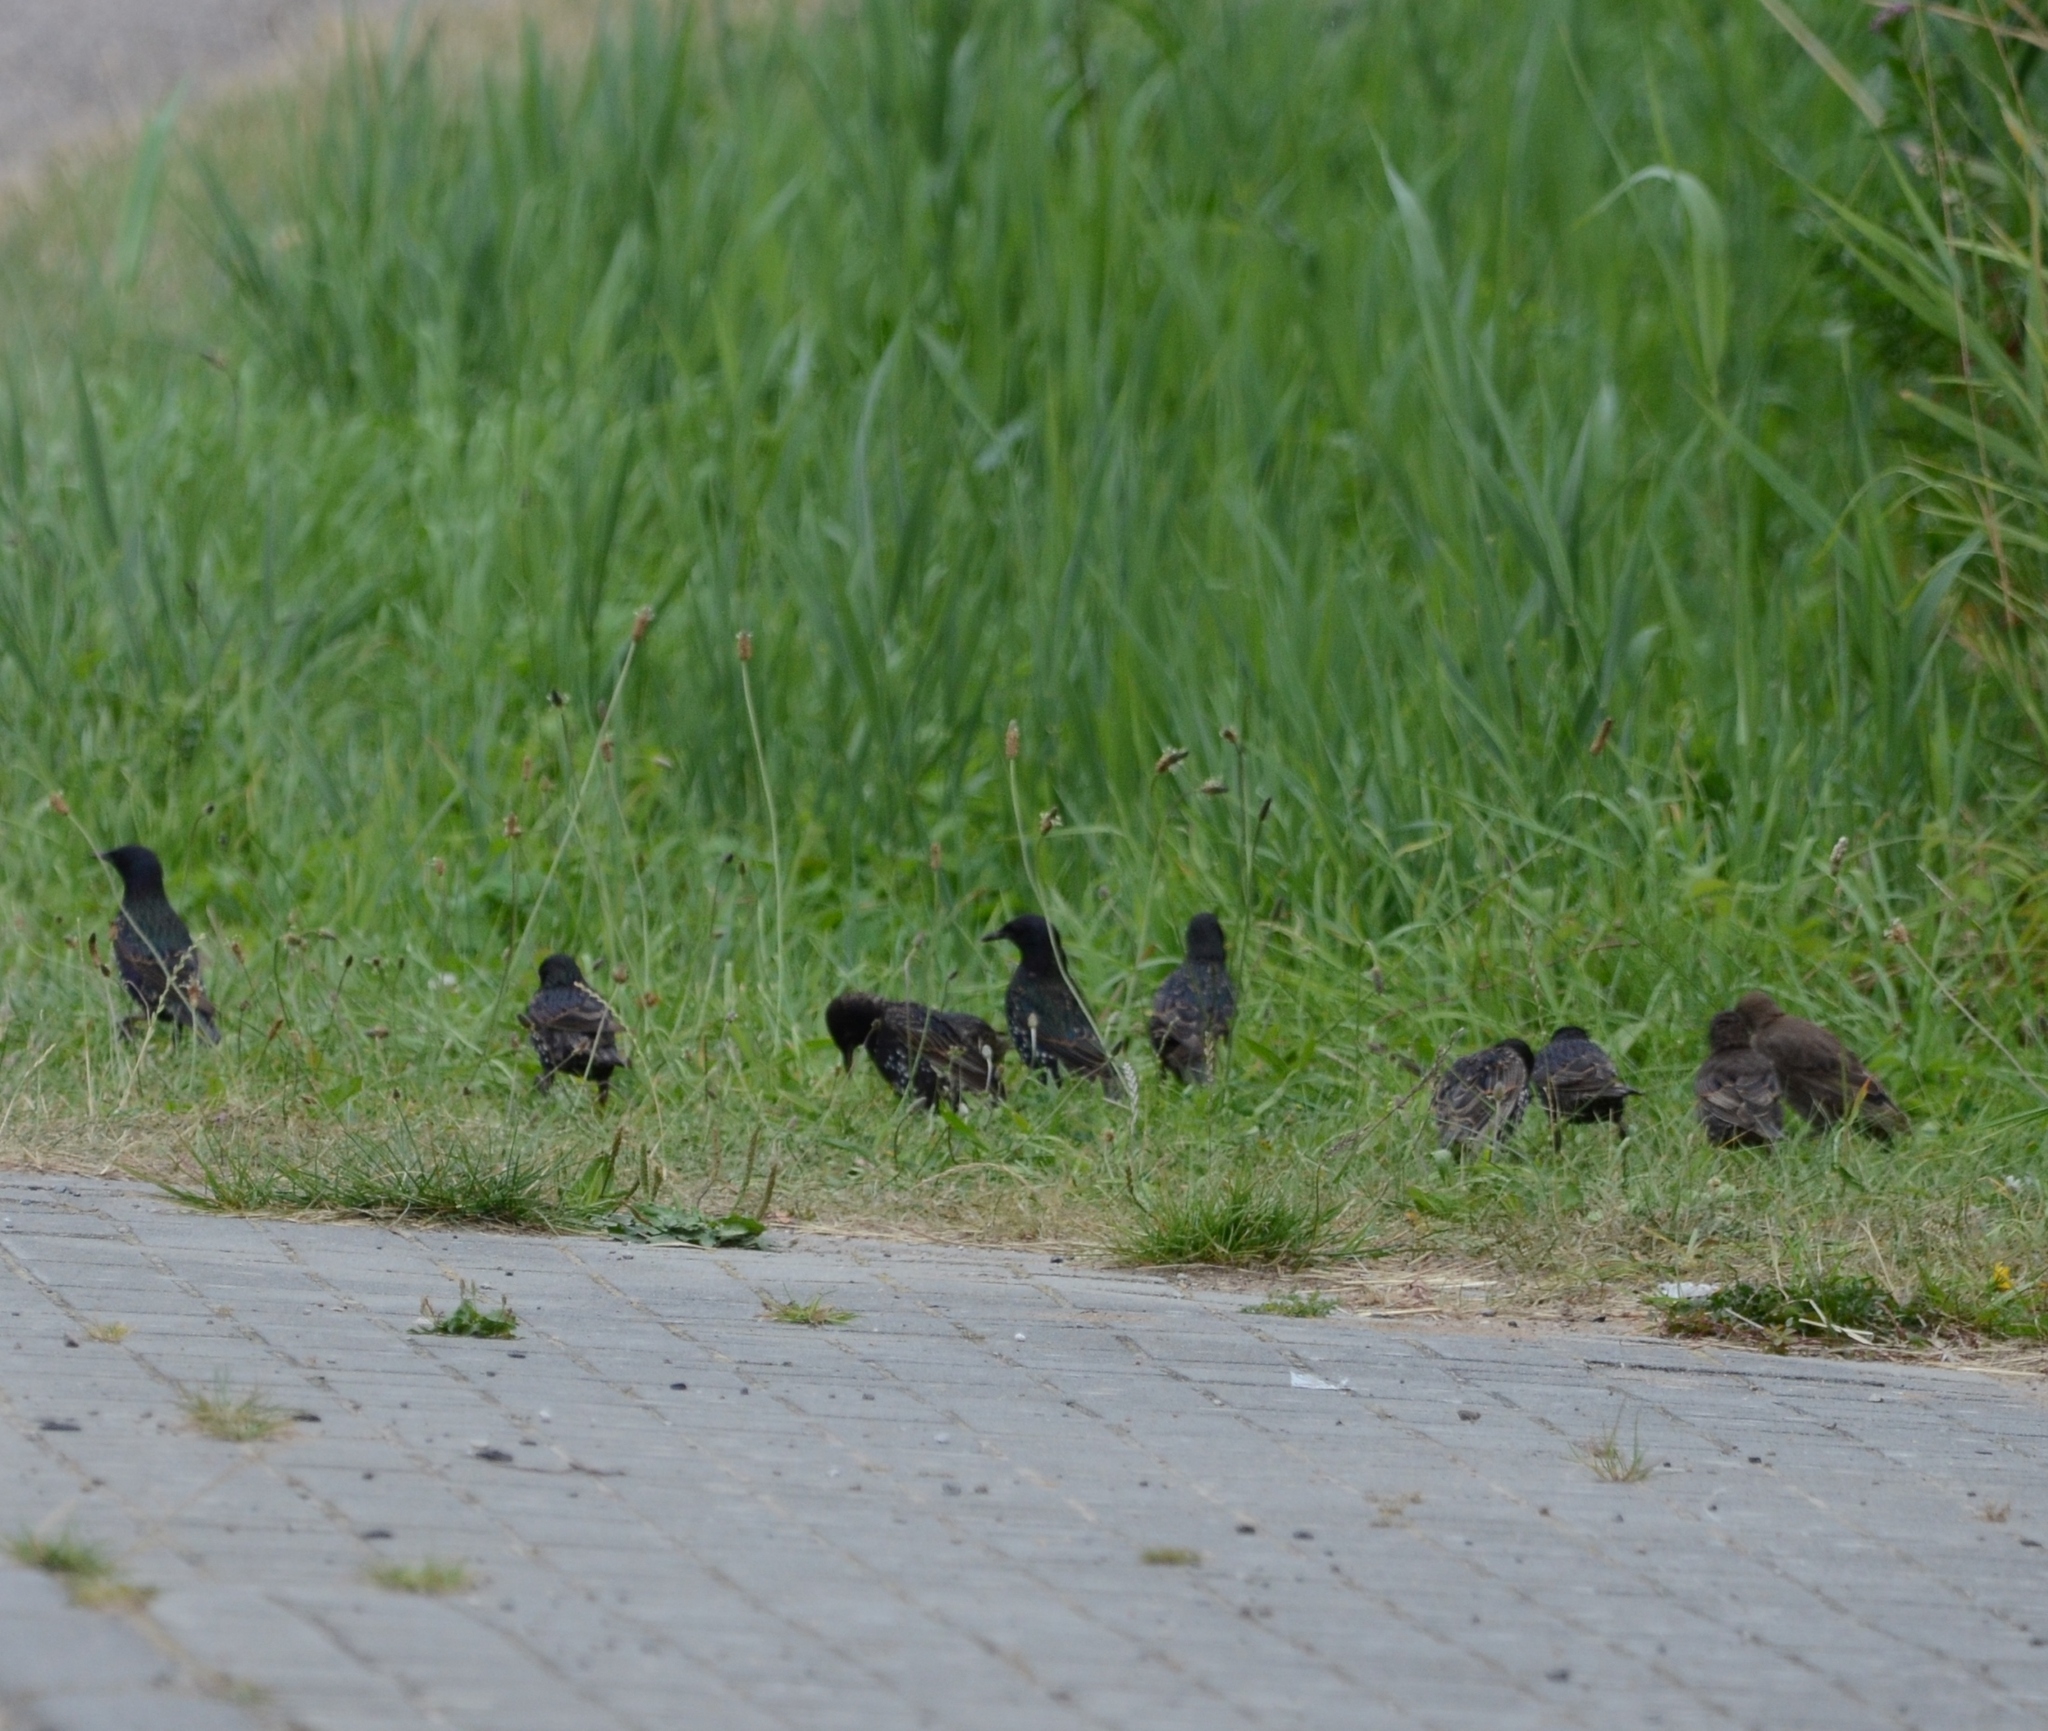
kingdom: Animalia
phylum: Chordata
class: Aves
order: Passeriformes
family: Sturnidae
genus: Sturnus
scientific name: Sturnus vulgaris
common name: Common starling
